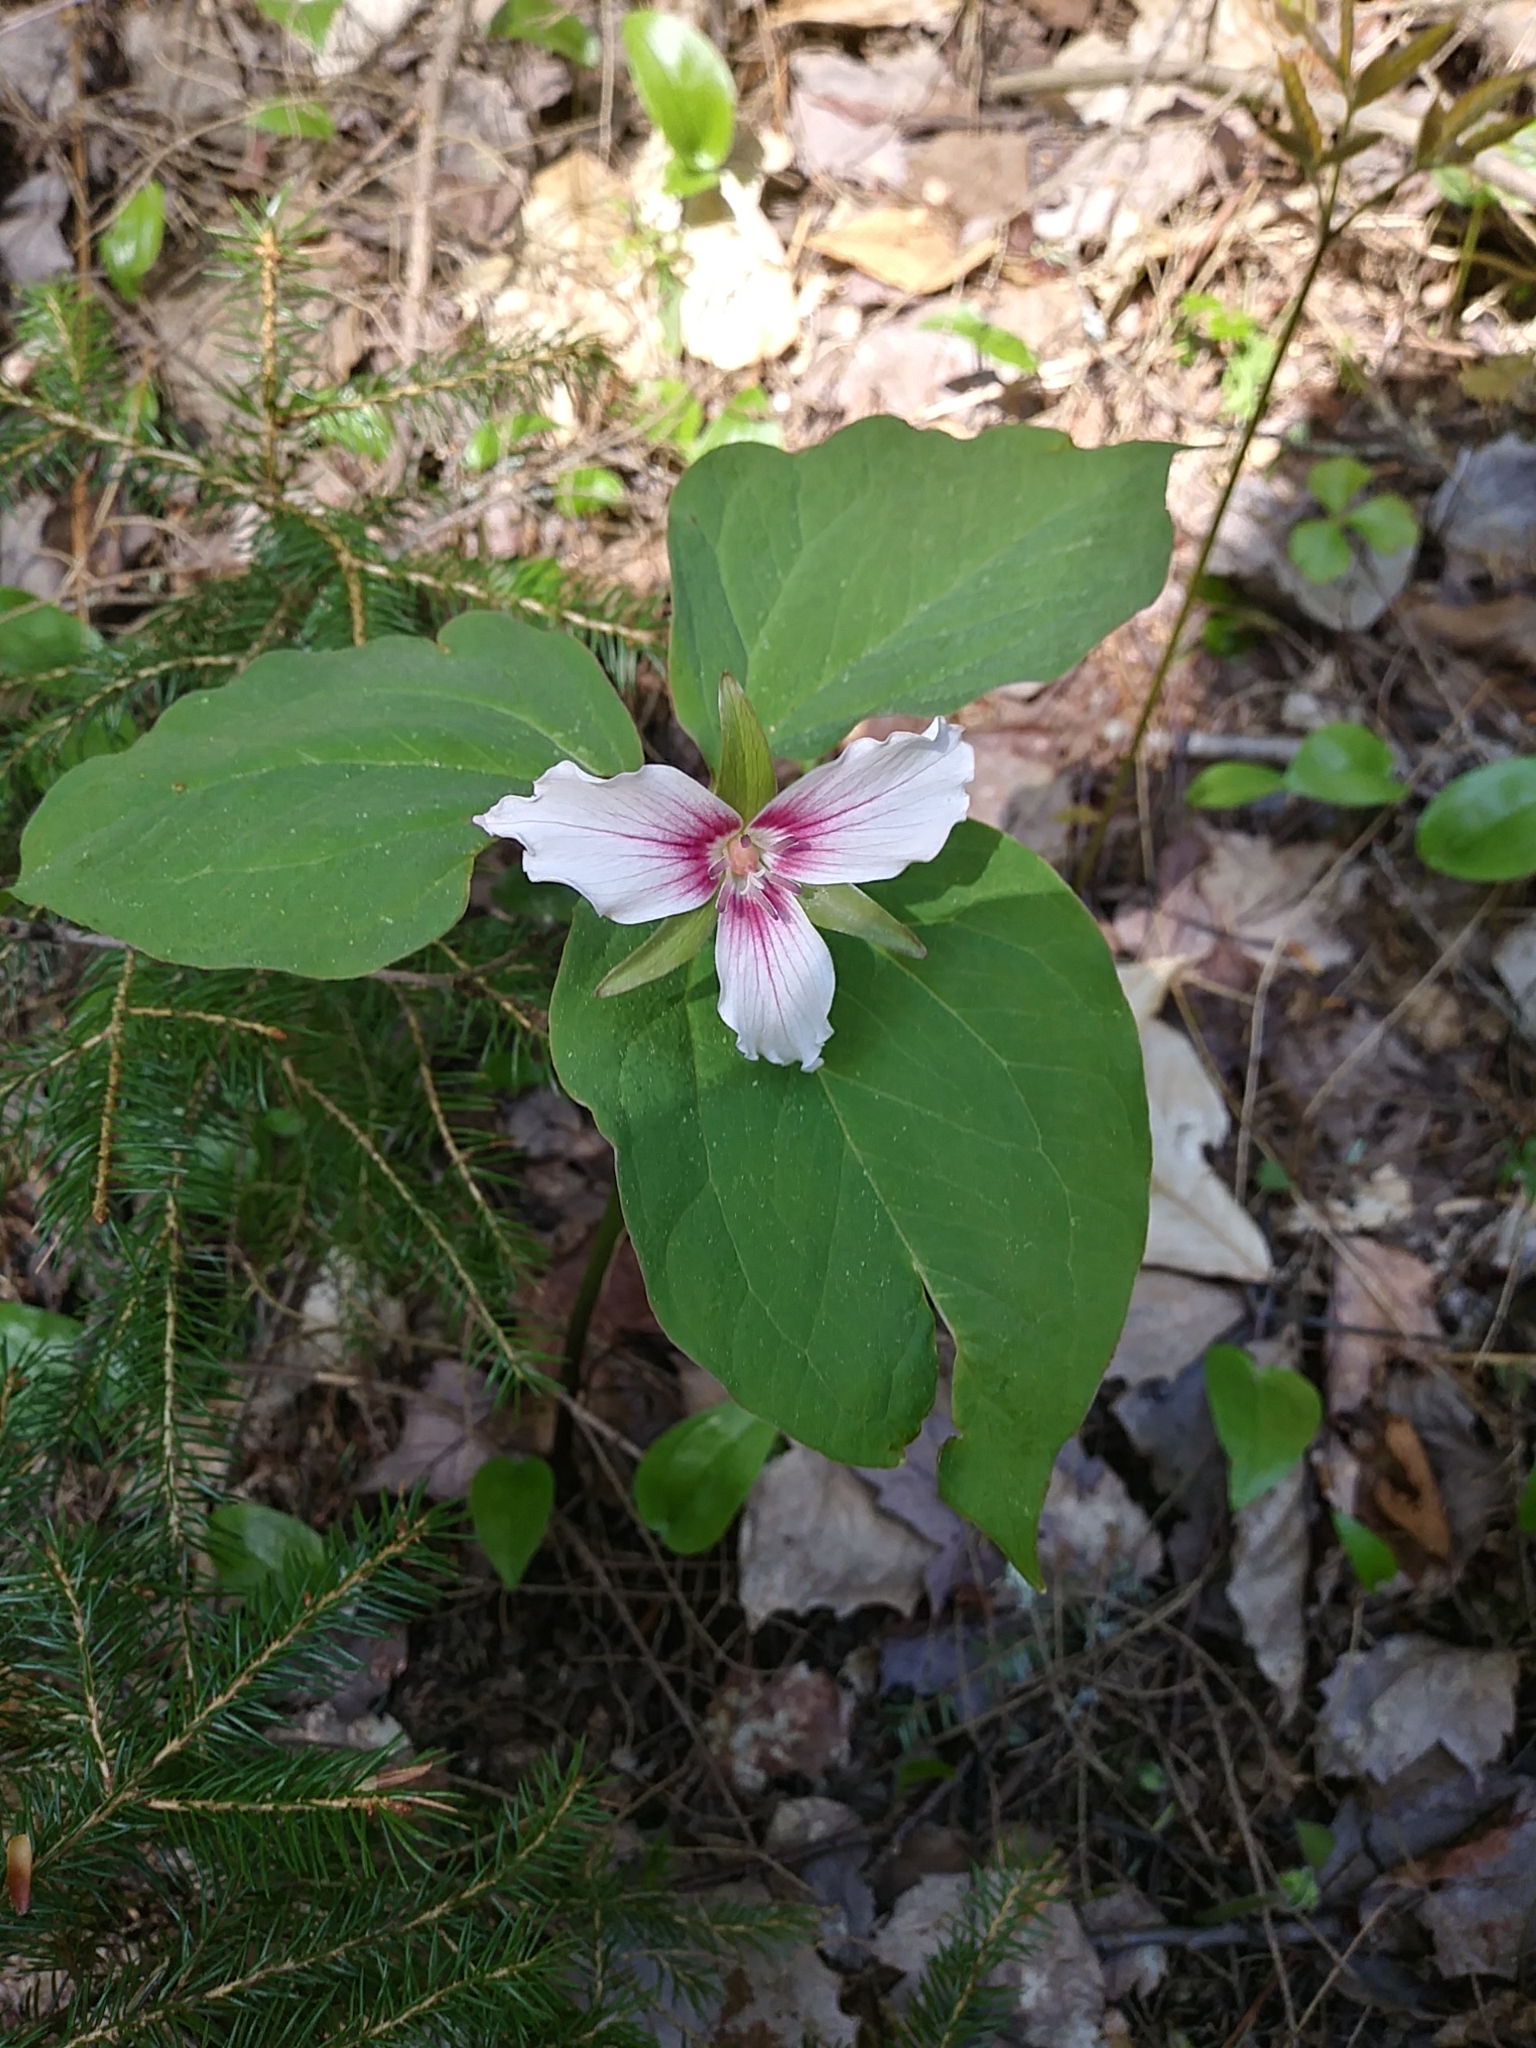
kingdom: Plantae
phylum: Tracheophyta
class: Liliopsida
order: Liliales
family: Melanthiaceae
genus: Trillium
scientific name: Trillium undulatum
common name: Paint trillium
